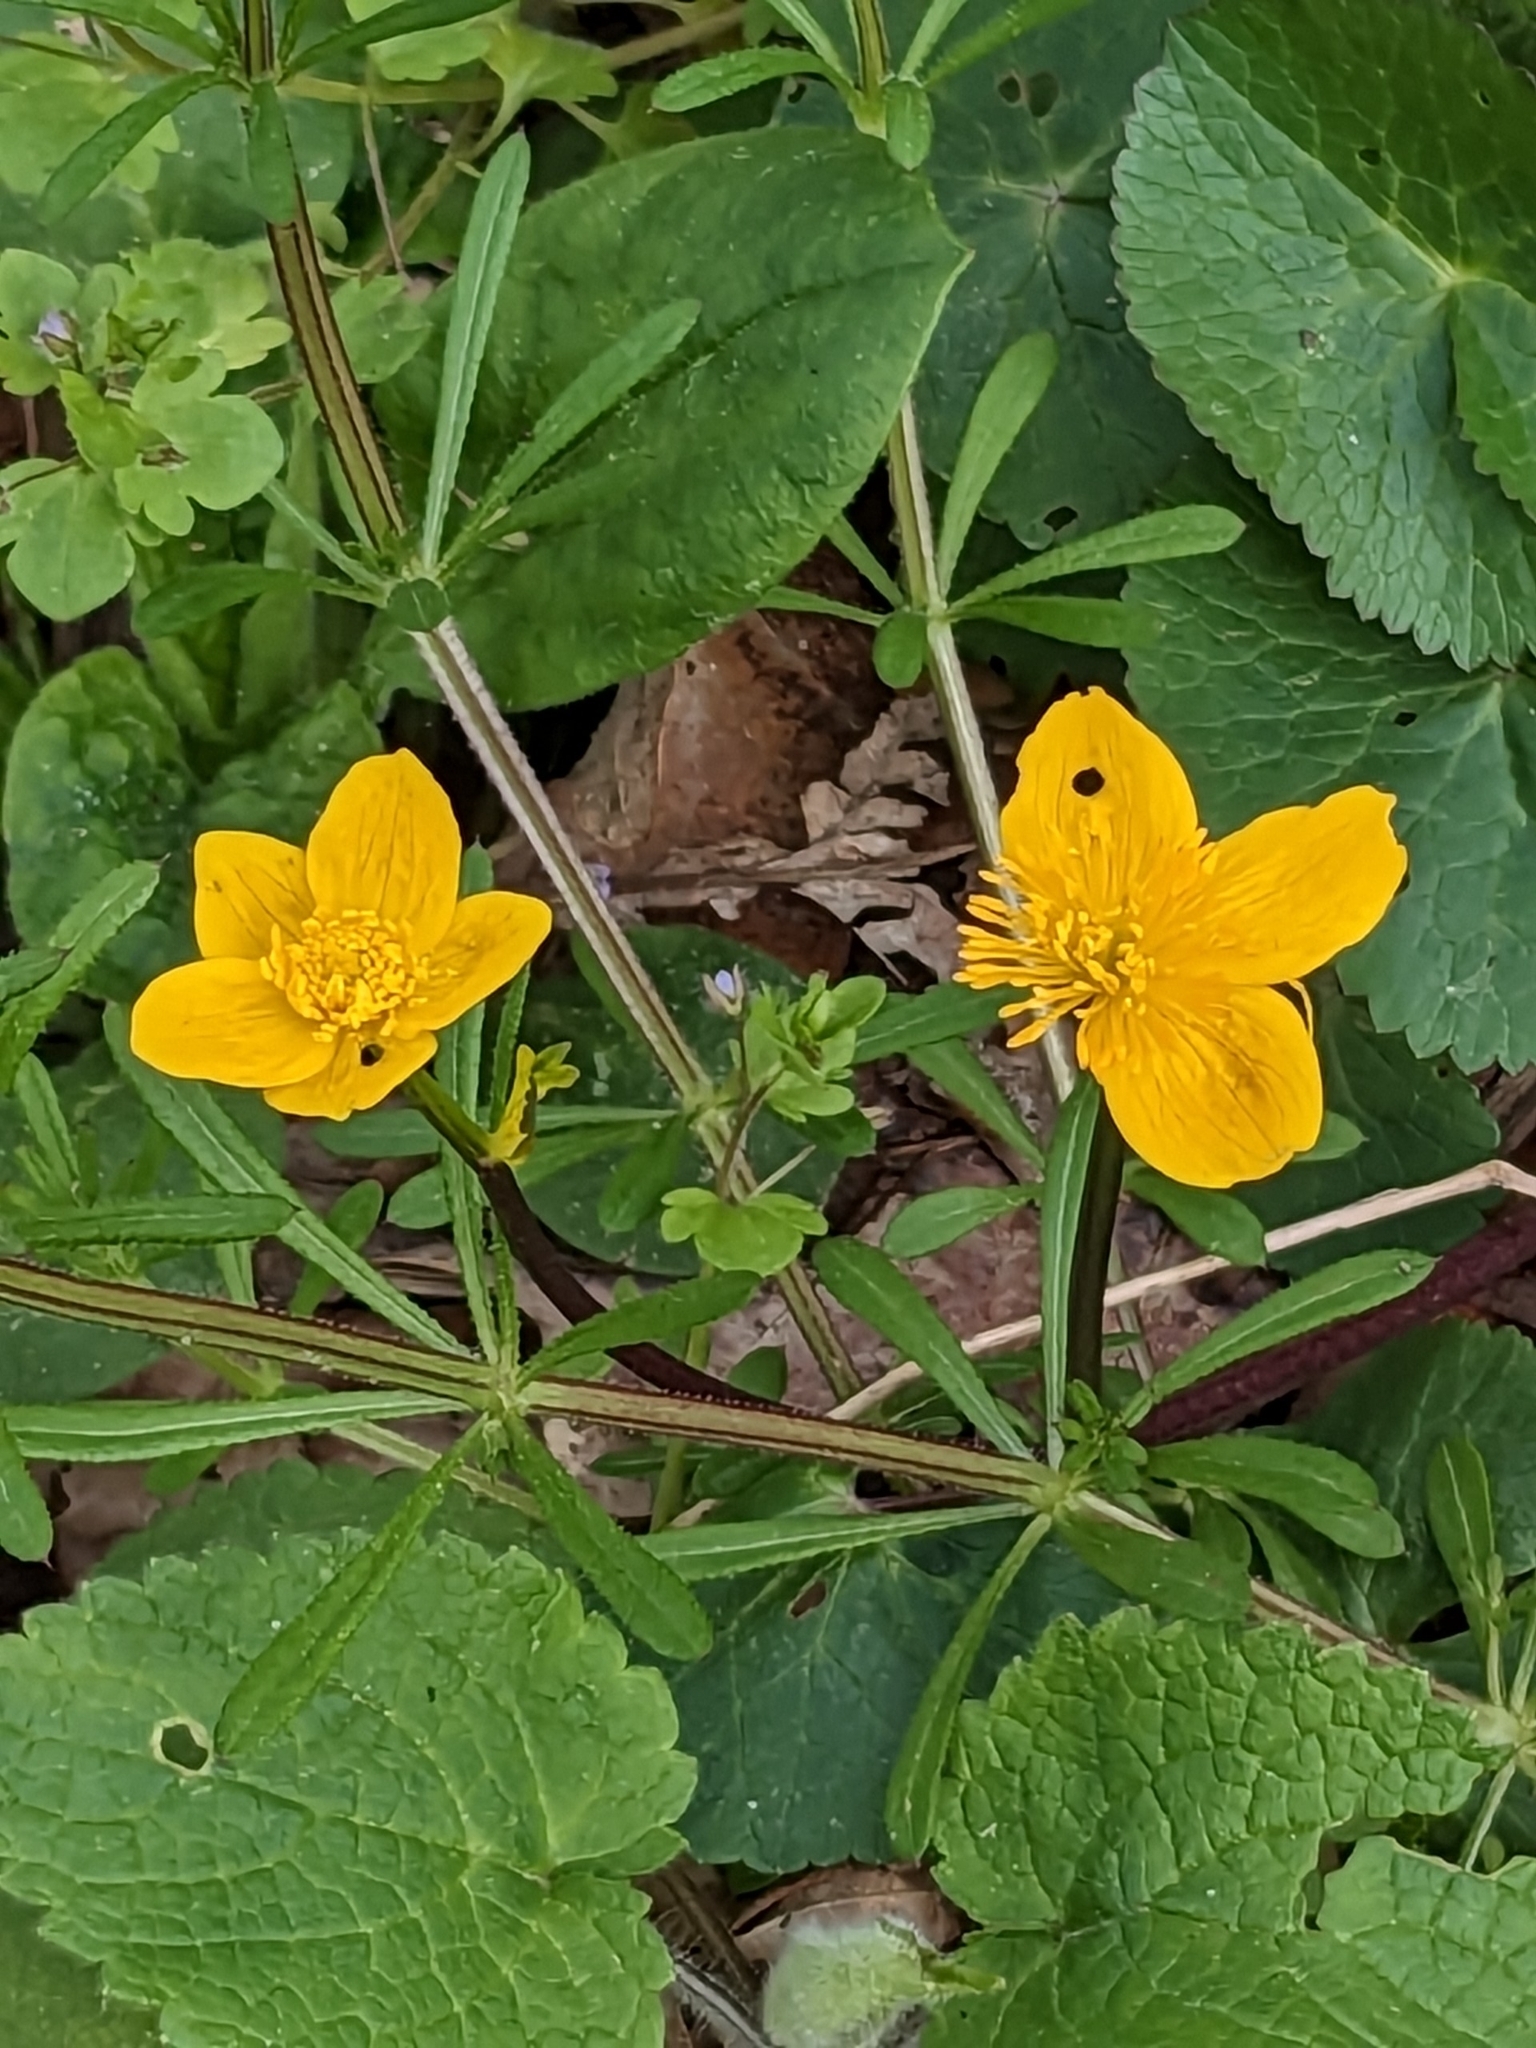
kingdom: Plantae
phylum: Tracheophyta
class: Magnoliopsida
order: Ranunculales
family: Ranunculaceae
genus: Caltha
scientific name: Caltha palustris
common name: Marsh marigold
